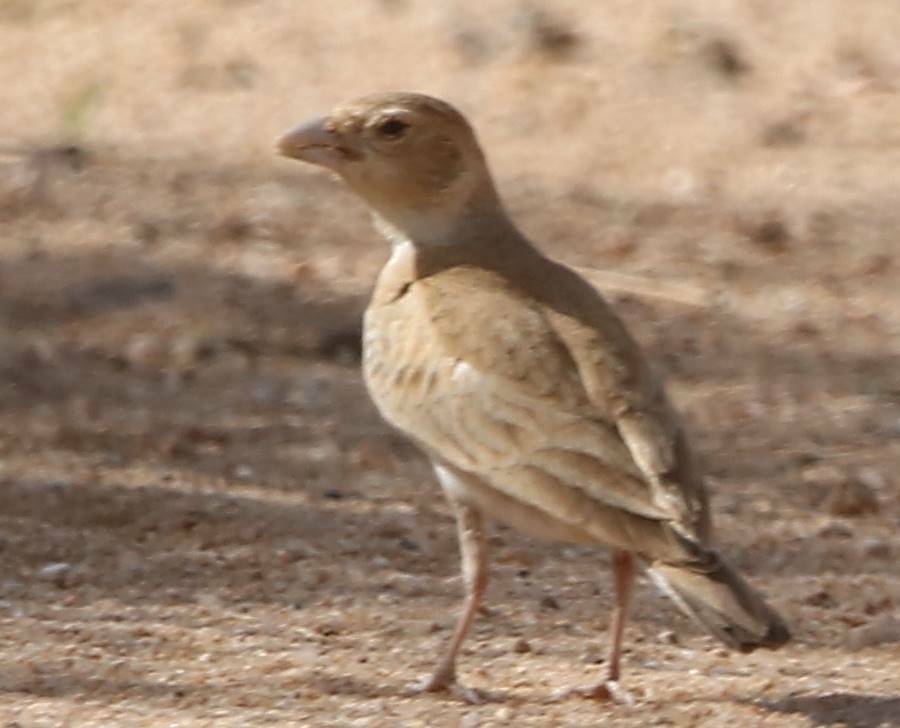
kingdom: Animalia
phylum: Chordata
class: Aves
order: Passeriformes
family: Alaudidae
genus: Eremopterix
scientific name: Eremopterix nigriceps
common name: Black-crowned sparrow-lark
